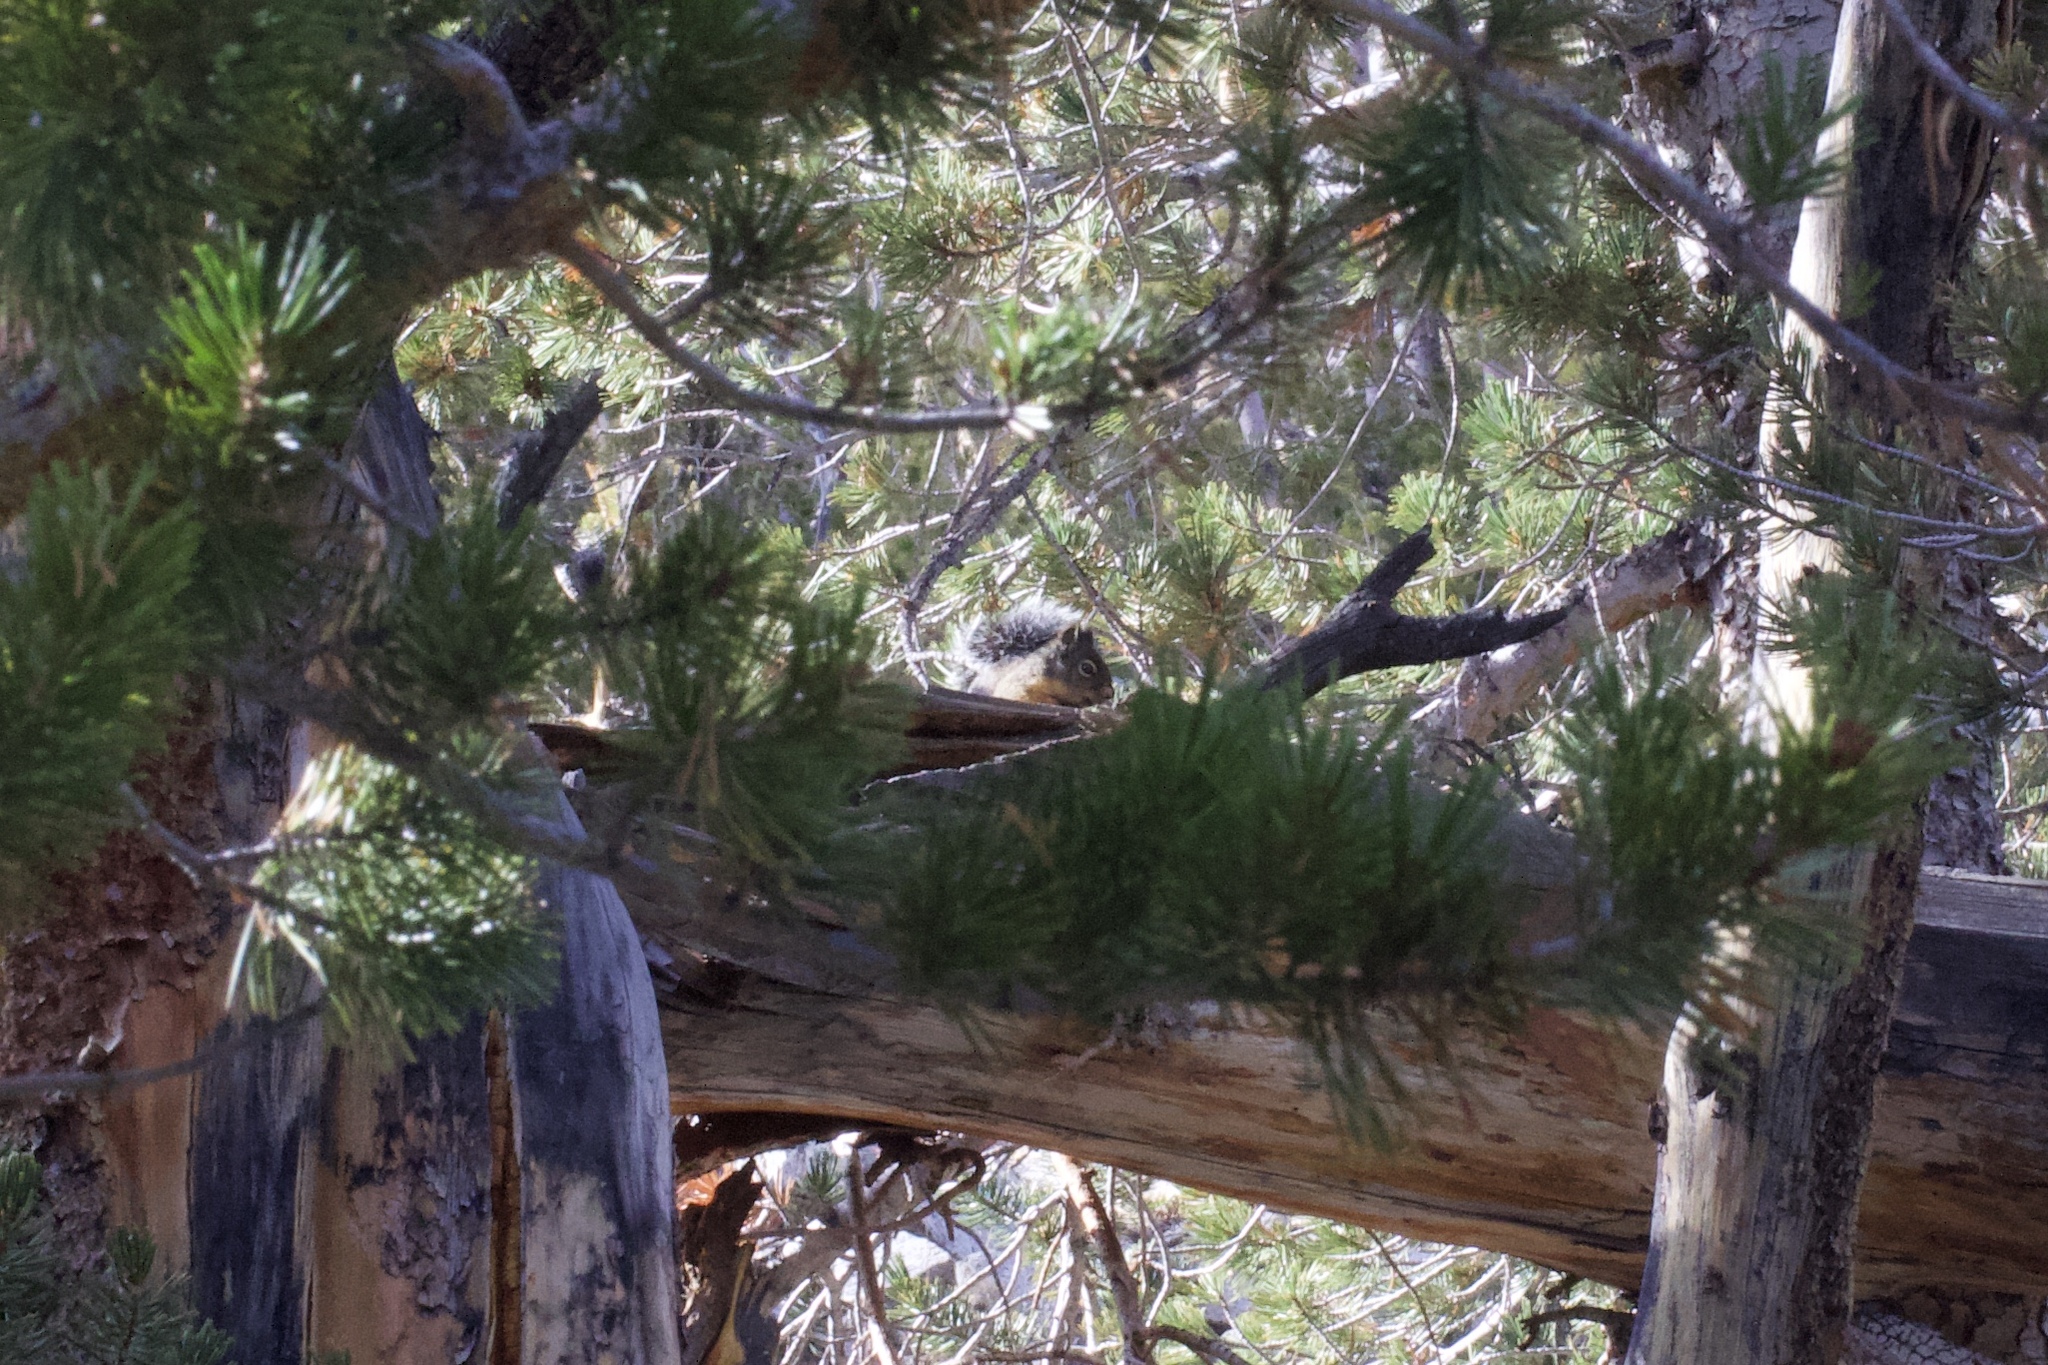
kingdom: Animalia
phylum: Chordata
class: Mammalia
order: Rodentia
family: Sciuridae
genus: Tamiasciurus
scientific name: Tamiasciurus douglasii
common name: Douglas's squirrel
